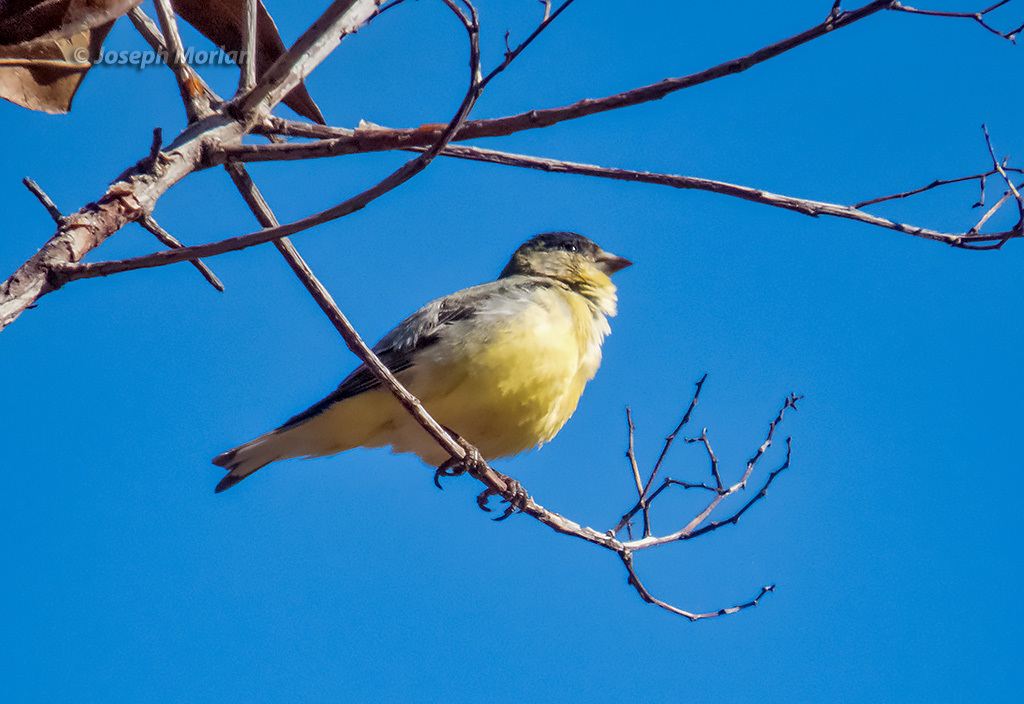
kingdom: Animalia
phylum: Chordata
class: Aves
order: Passeriformes
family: Fringillidae
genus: Spinus
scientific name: Spinus psaltria
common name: Lesser goldfinch
